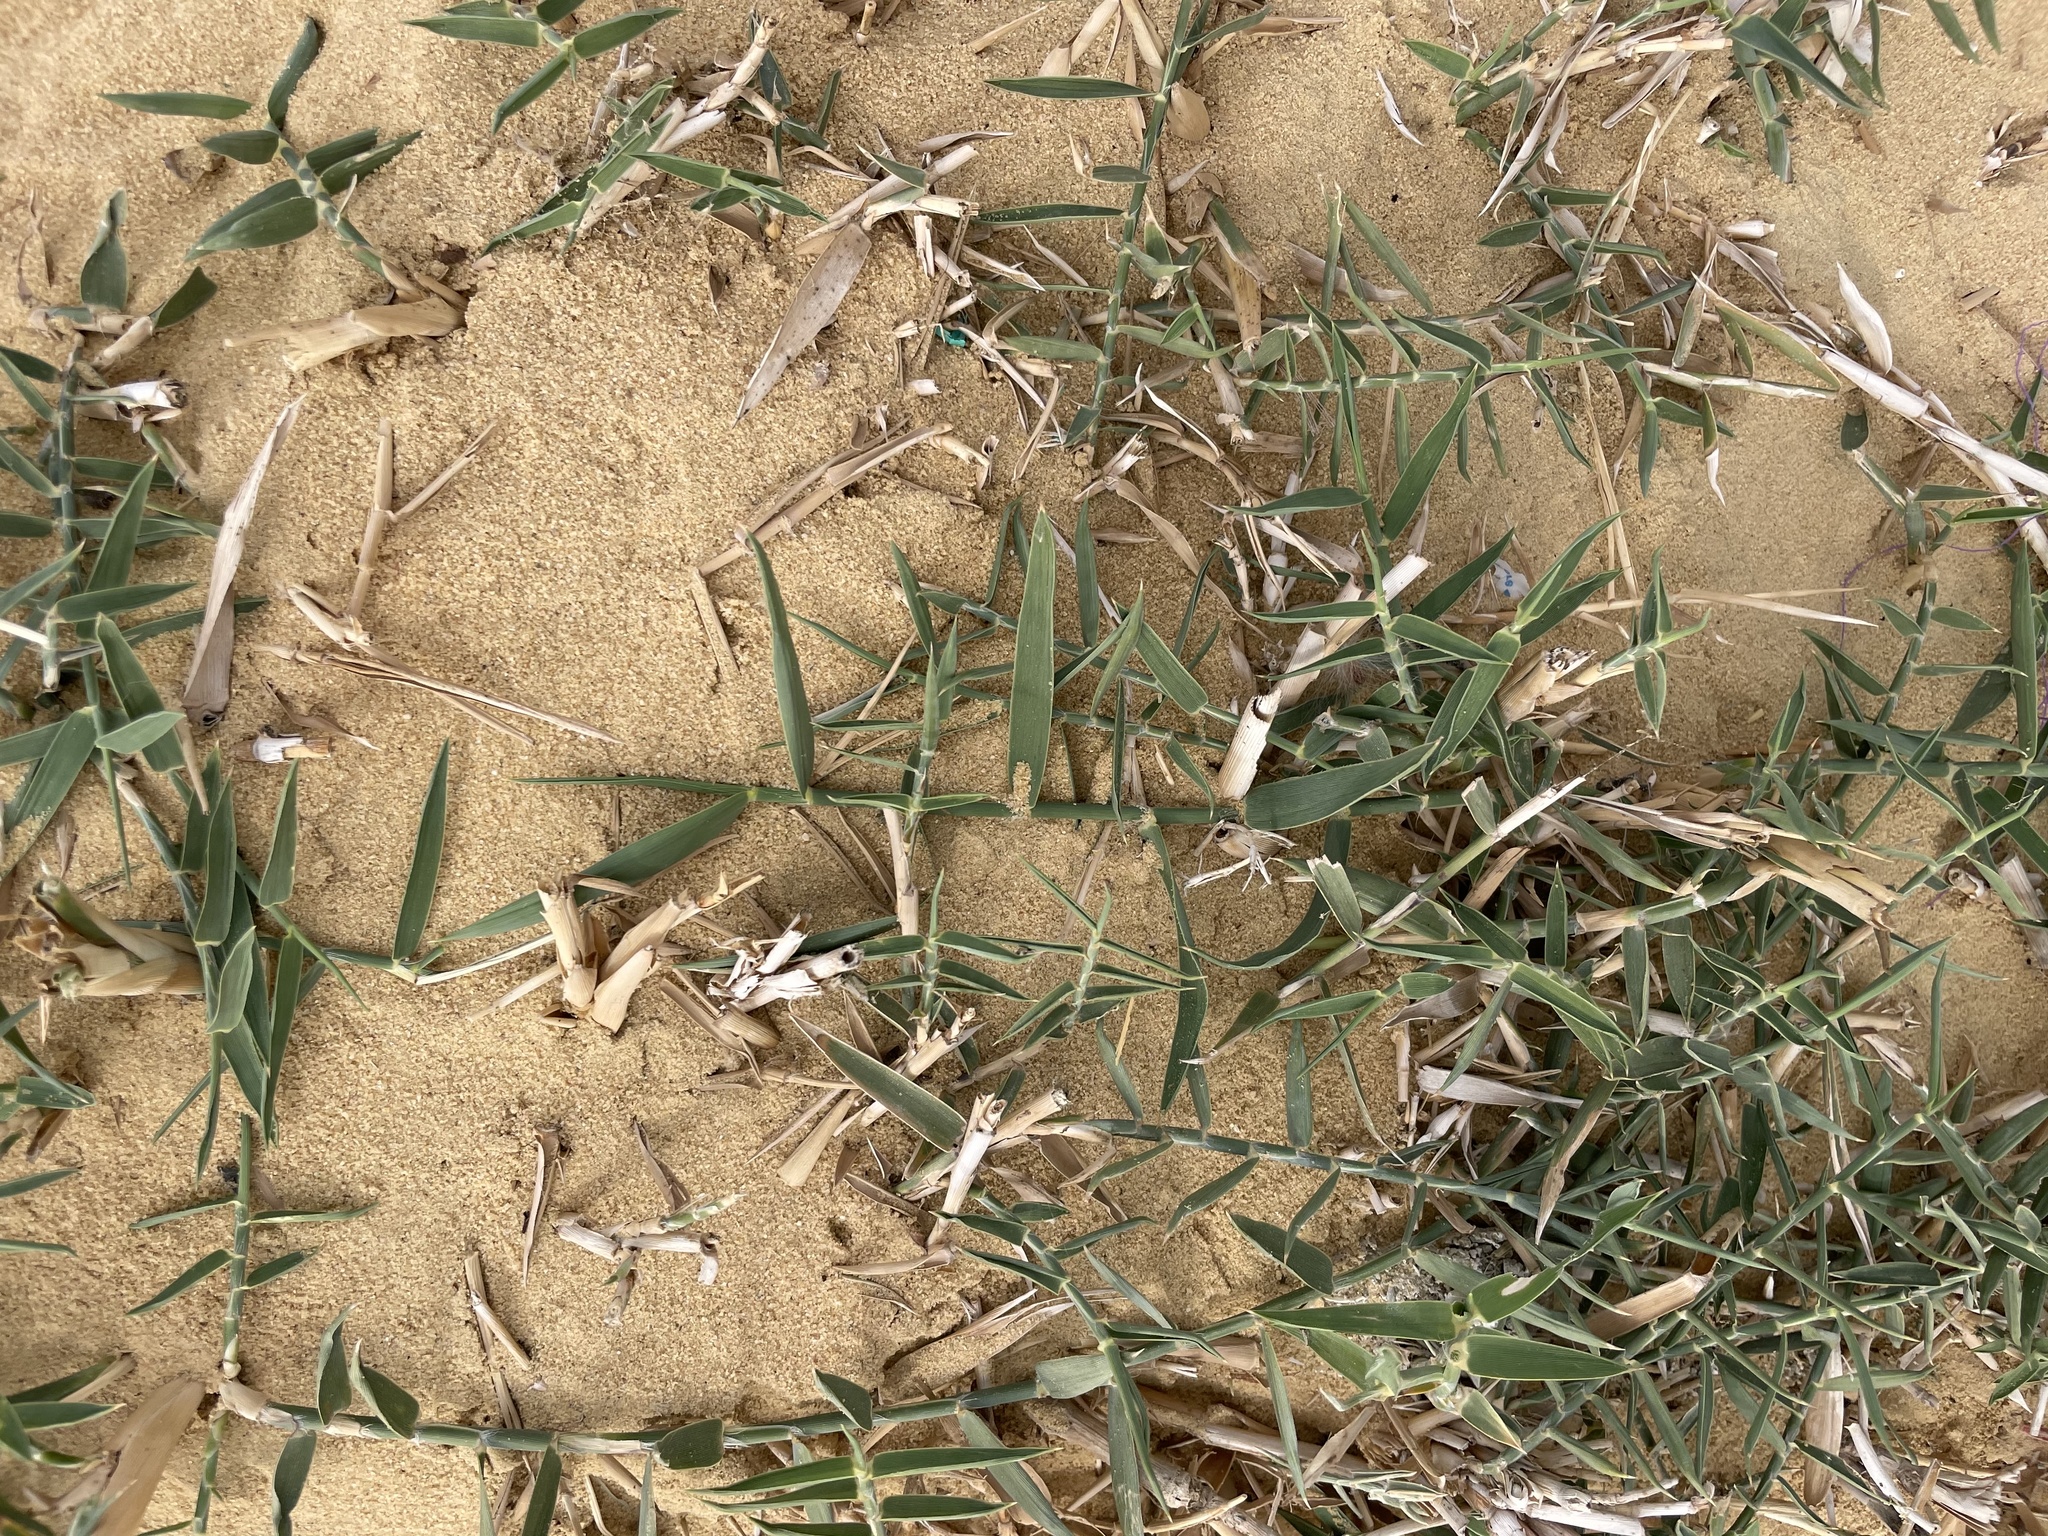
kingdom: Plantae
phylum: Tracheophyta
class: Liliopsida
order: Poales
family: Poaceae
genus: Cynodon
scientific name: Cynodon dactylon
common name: Bermuda grass
